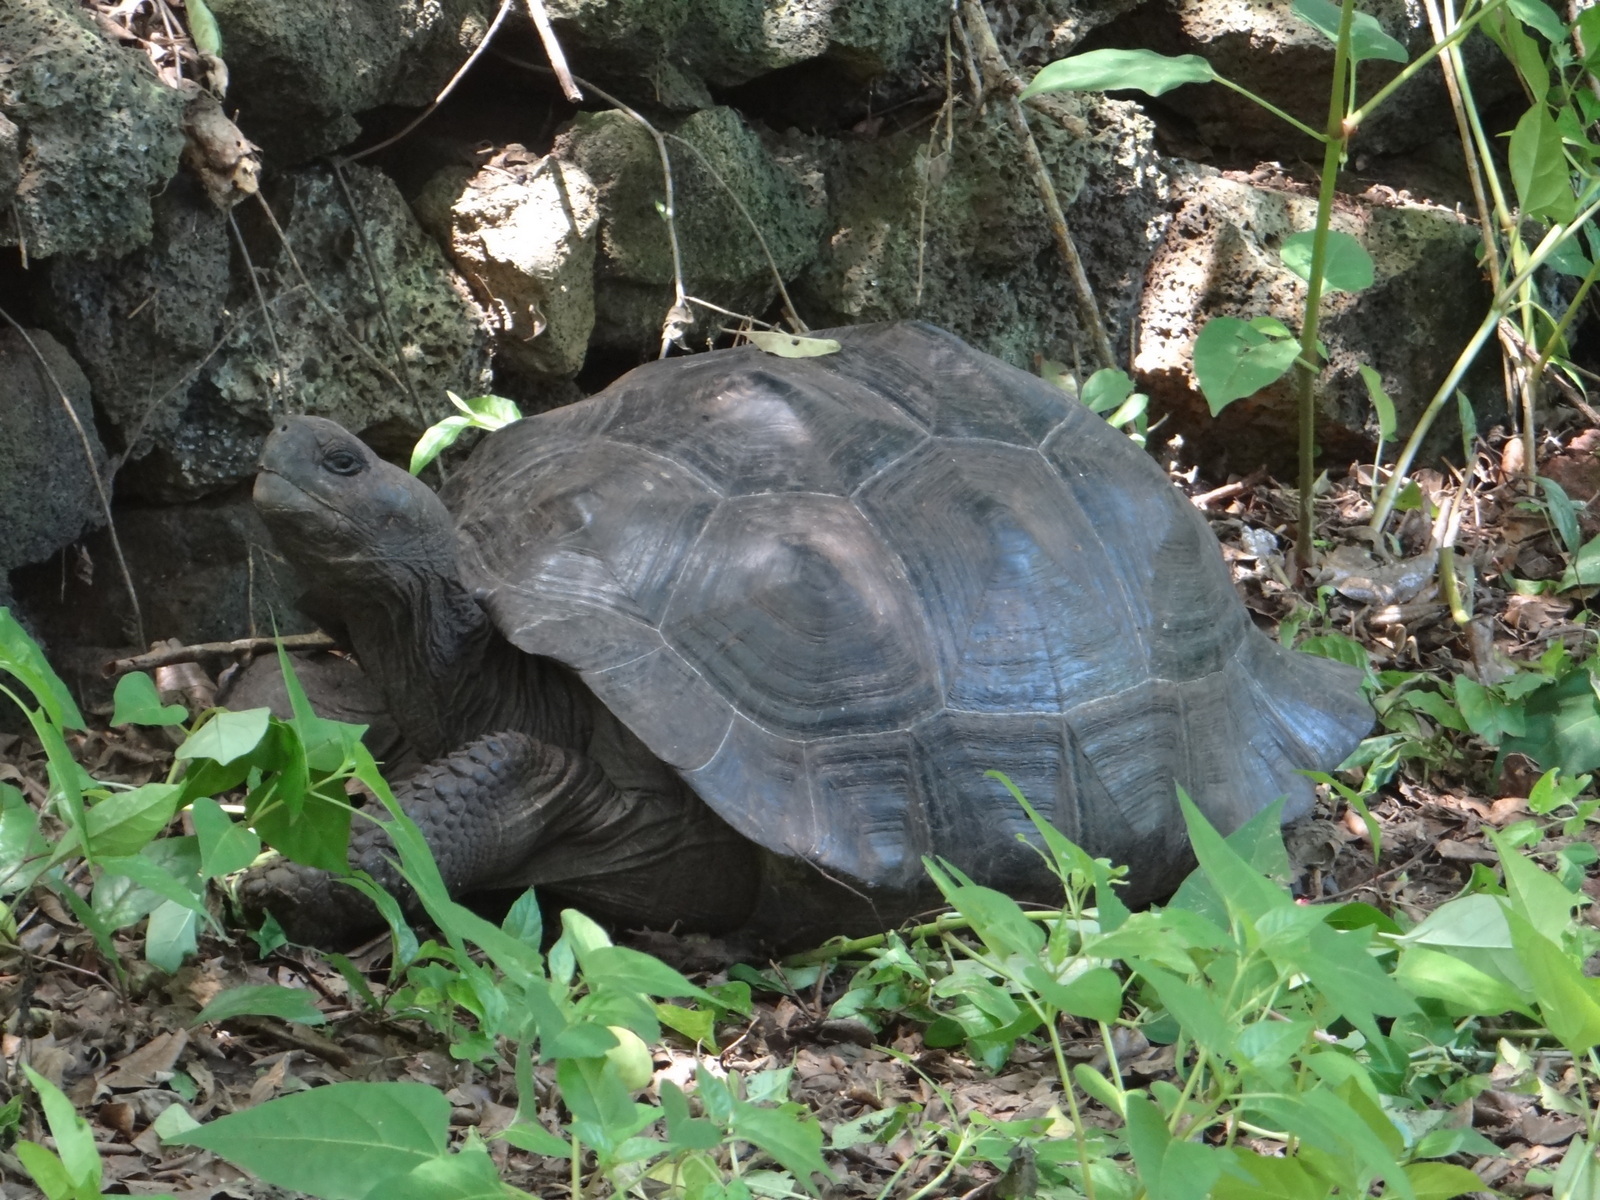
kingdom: Animalia
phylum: Chordata
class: Testudines
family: Testudinidae
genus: Chelonoidis
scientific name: Chelonoidis niger
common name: Charles island giant tortoise
